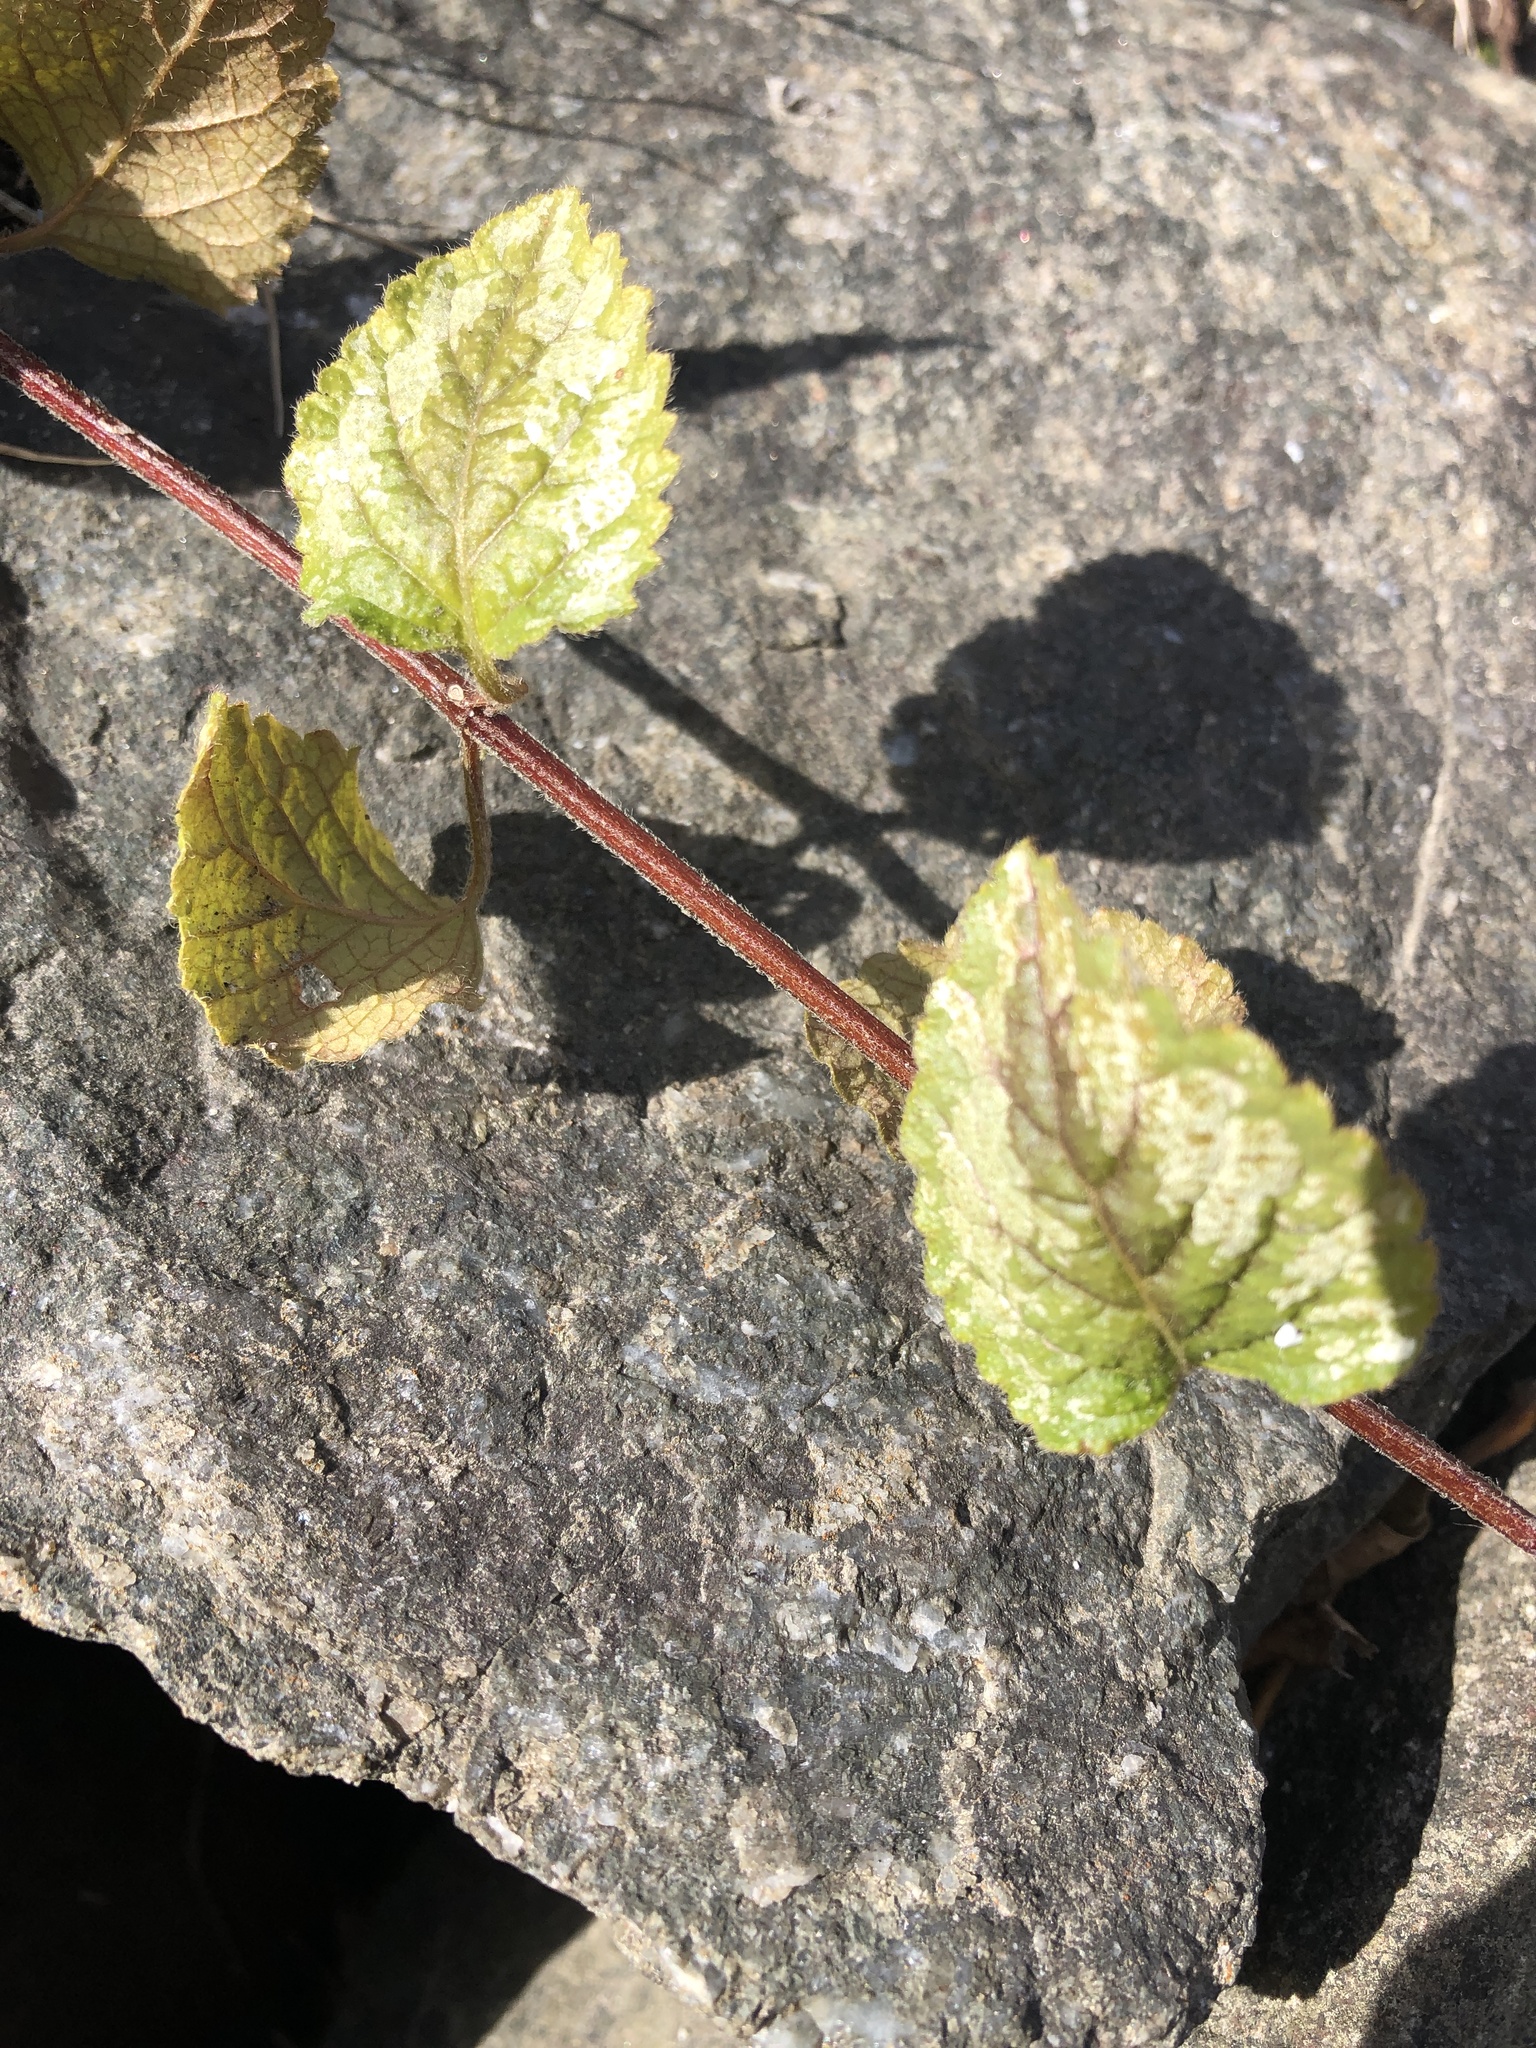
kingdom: Plantae
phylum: Tracheophyta
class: Magnoliopsida
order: Lamiales
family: Lamiaceae
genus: Lamium
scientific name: Lamium galeobdolon
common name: Yellow archangel
